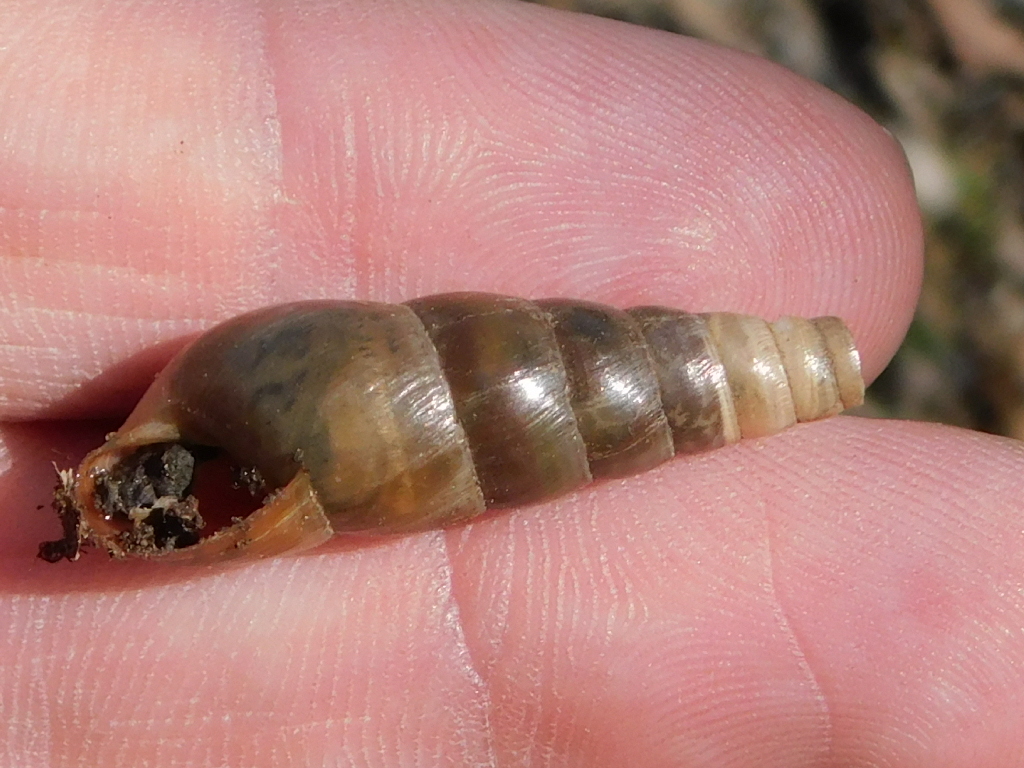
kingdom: Animalia
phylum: Mollusca
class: Gastropoda
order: Stylommatophora
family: Achatinidae
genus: Rumina
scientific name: Rumina decollata
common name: Decollate snail
